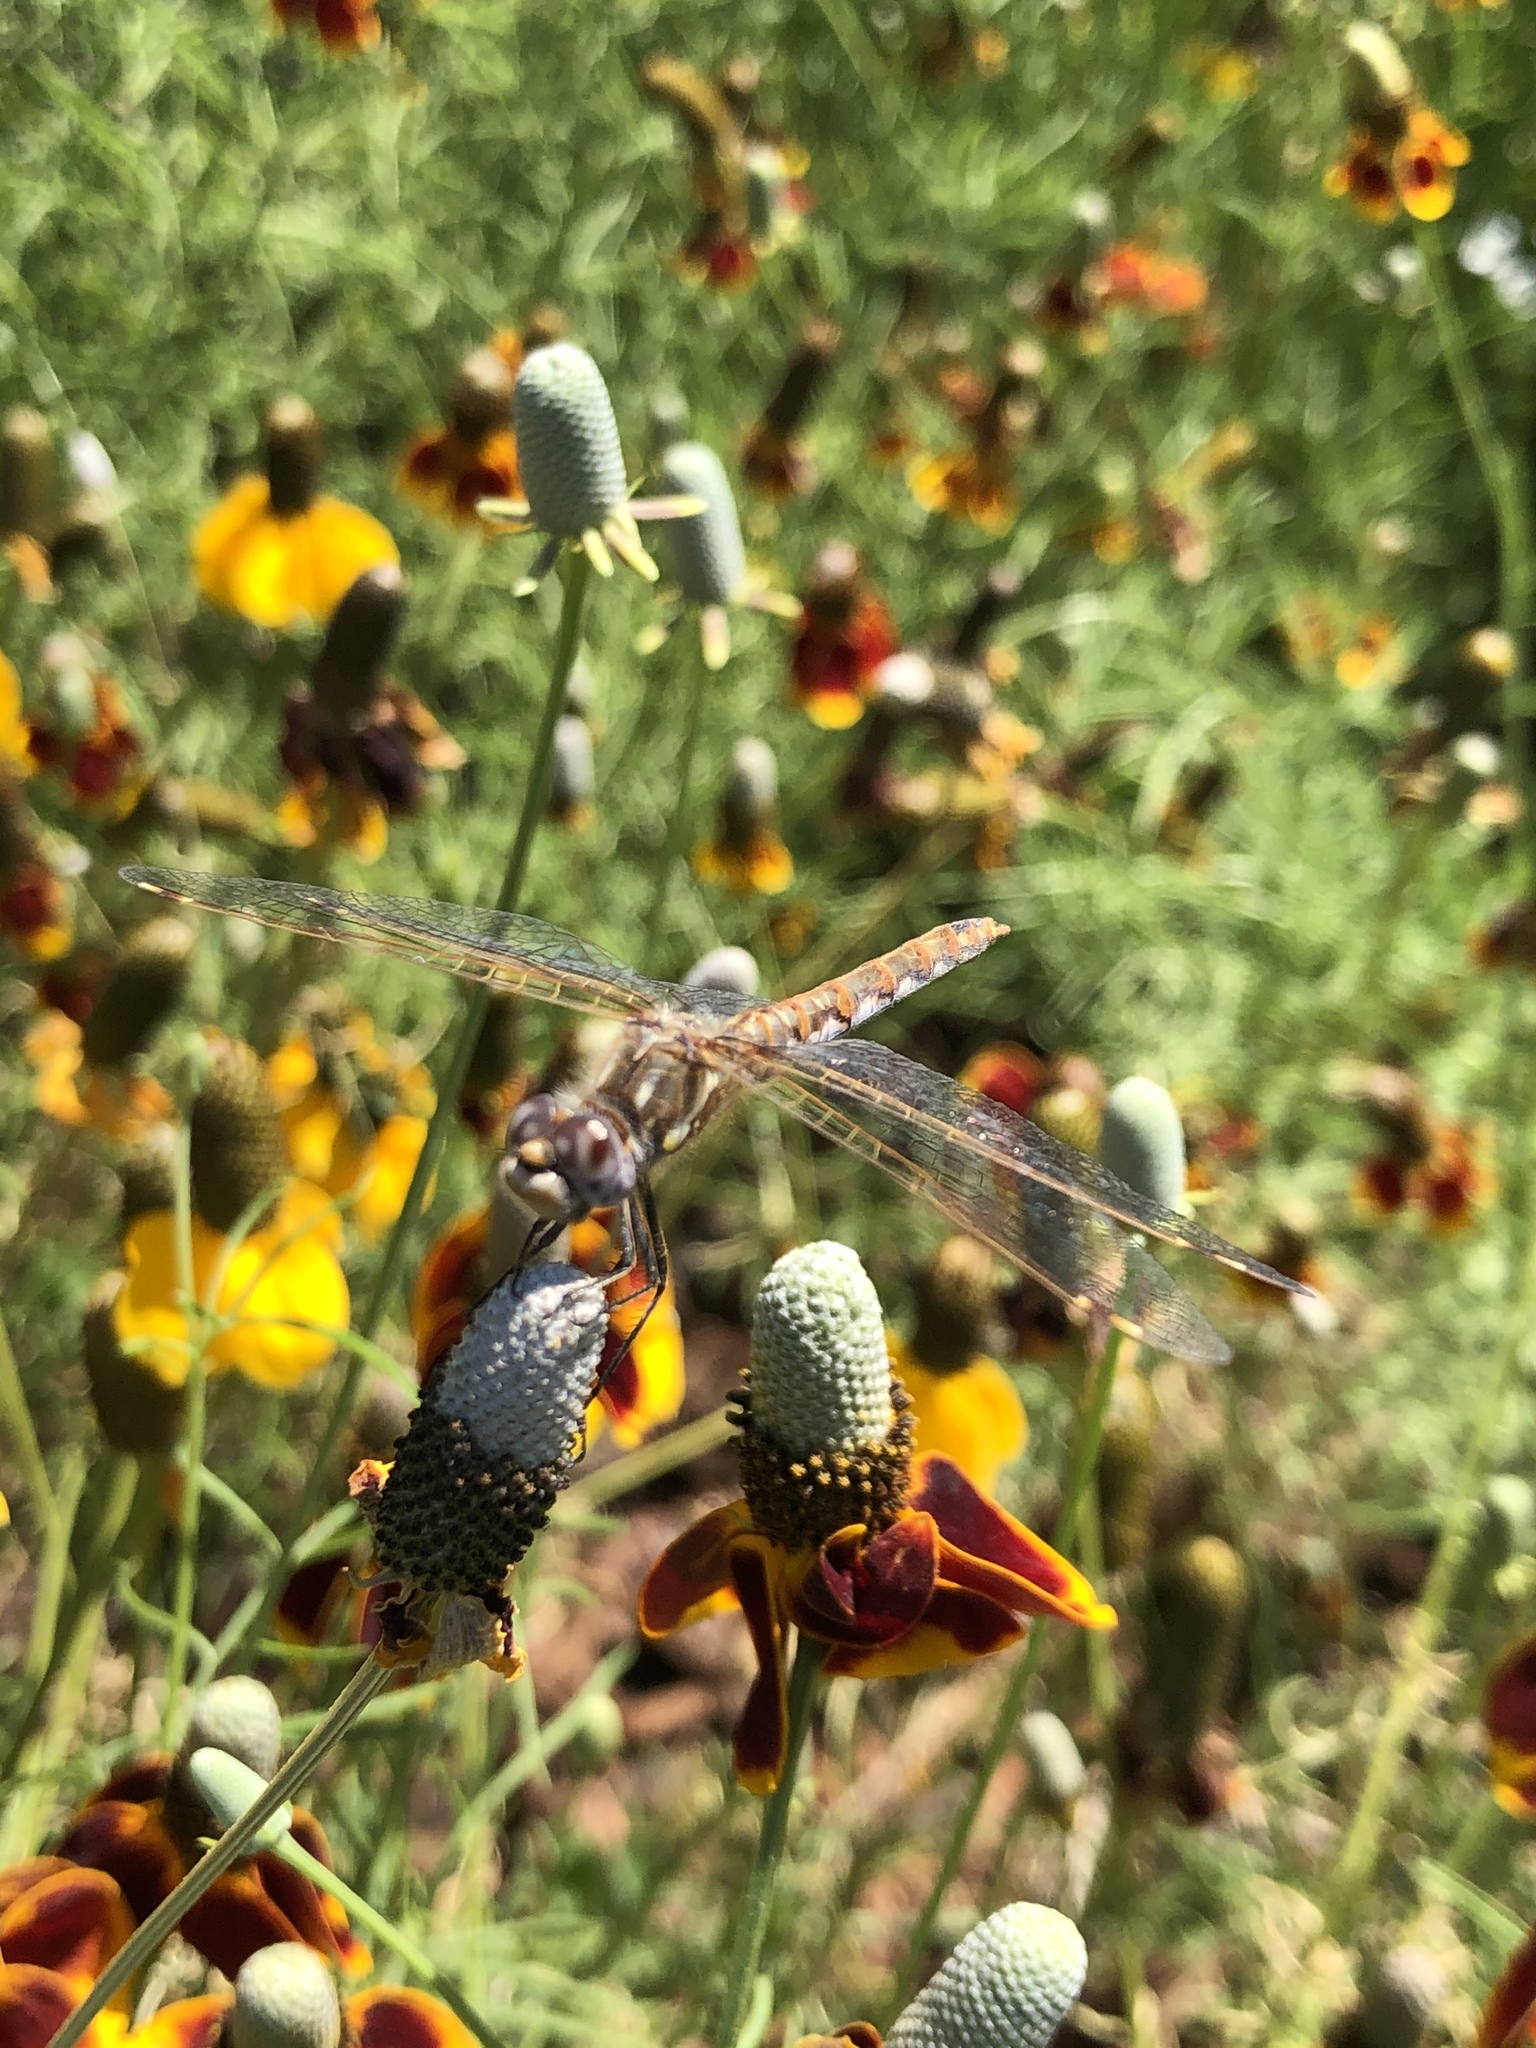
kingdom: Animalia
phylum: Arthropoda
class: Insecta
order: Odonata
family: Libellulidae
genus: Sympetrum
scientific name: Sympetrum corruptum
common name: Variegated meadowhawk
